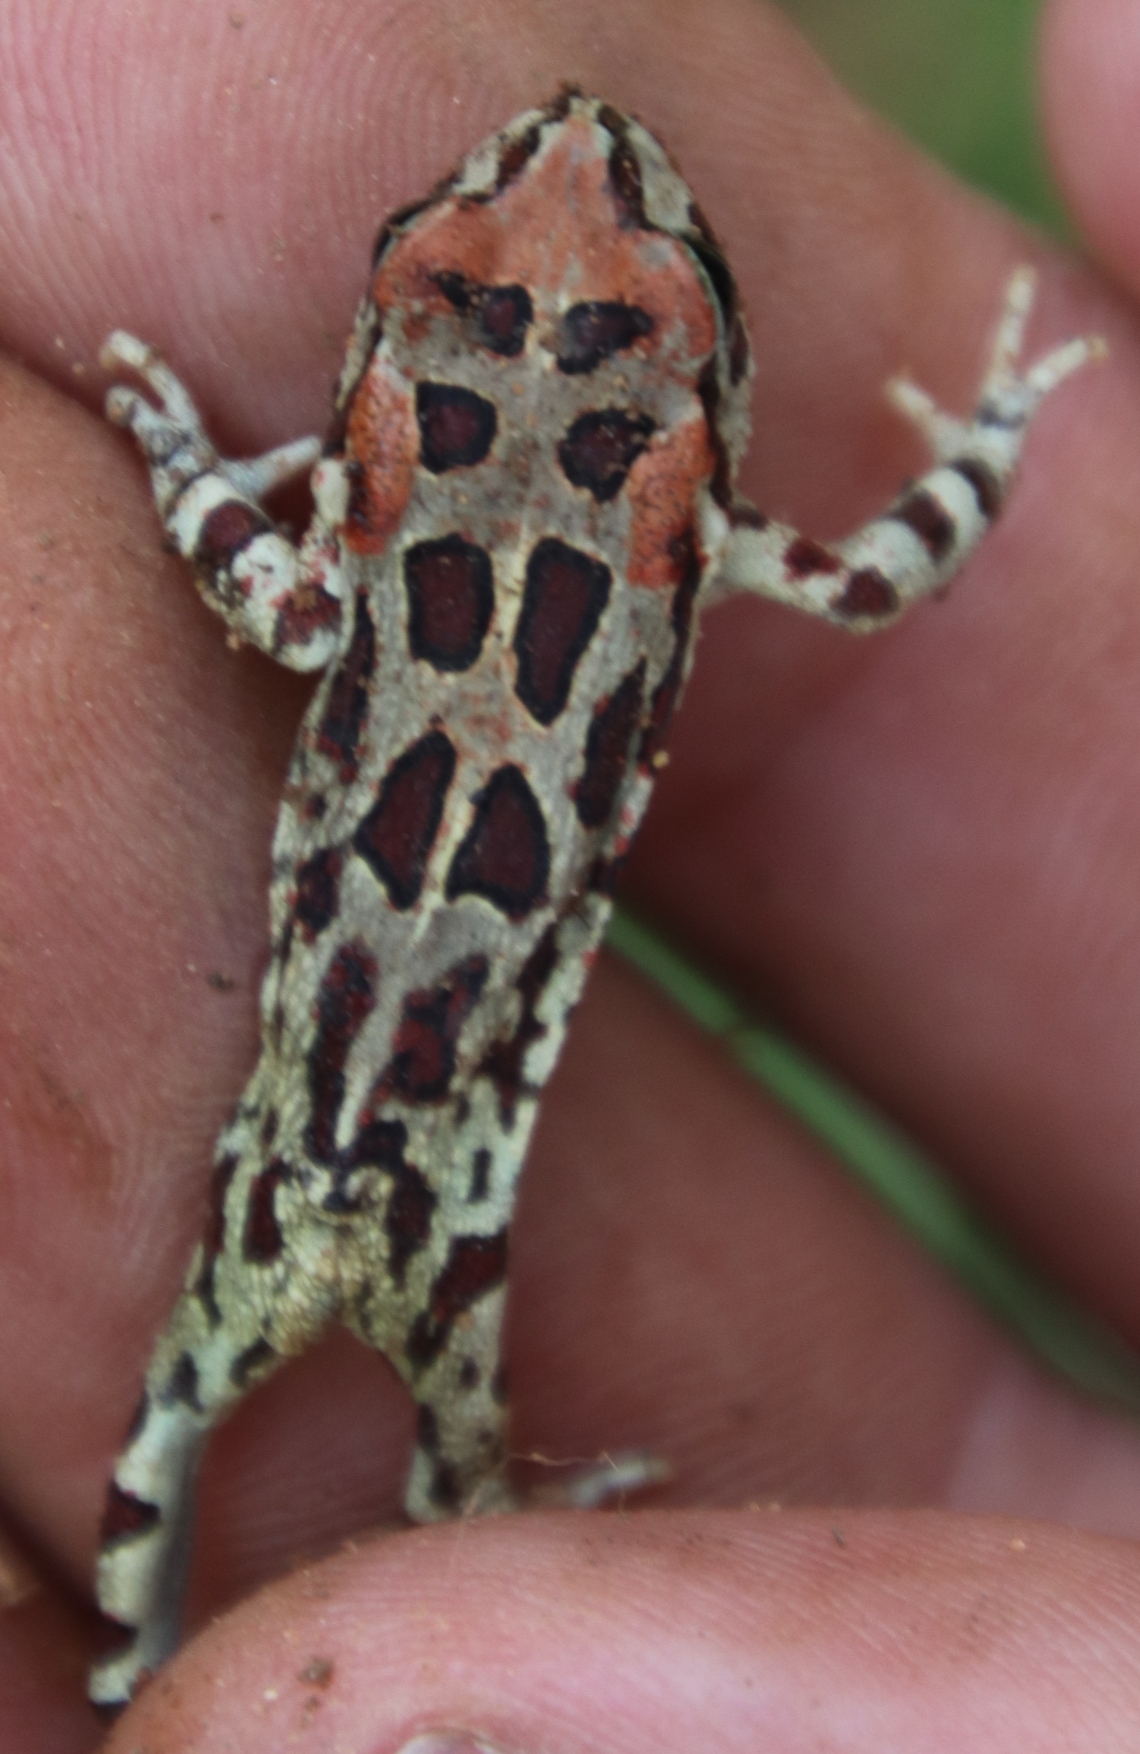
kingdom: Animalia
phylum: Chordata
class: Amphibia
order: Anura
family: Bufonidae
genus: Sclerophrys
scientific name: Sclerophrys pantherina
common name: Panther toad
